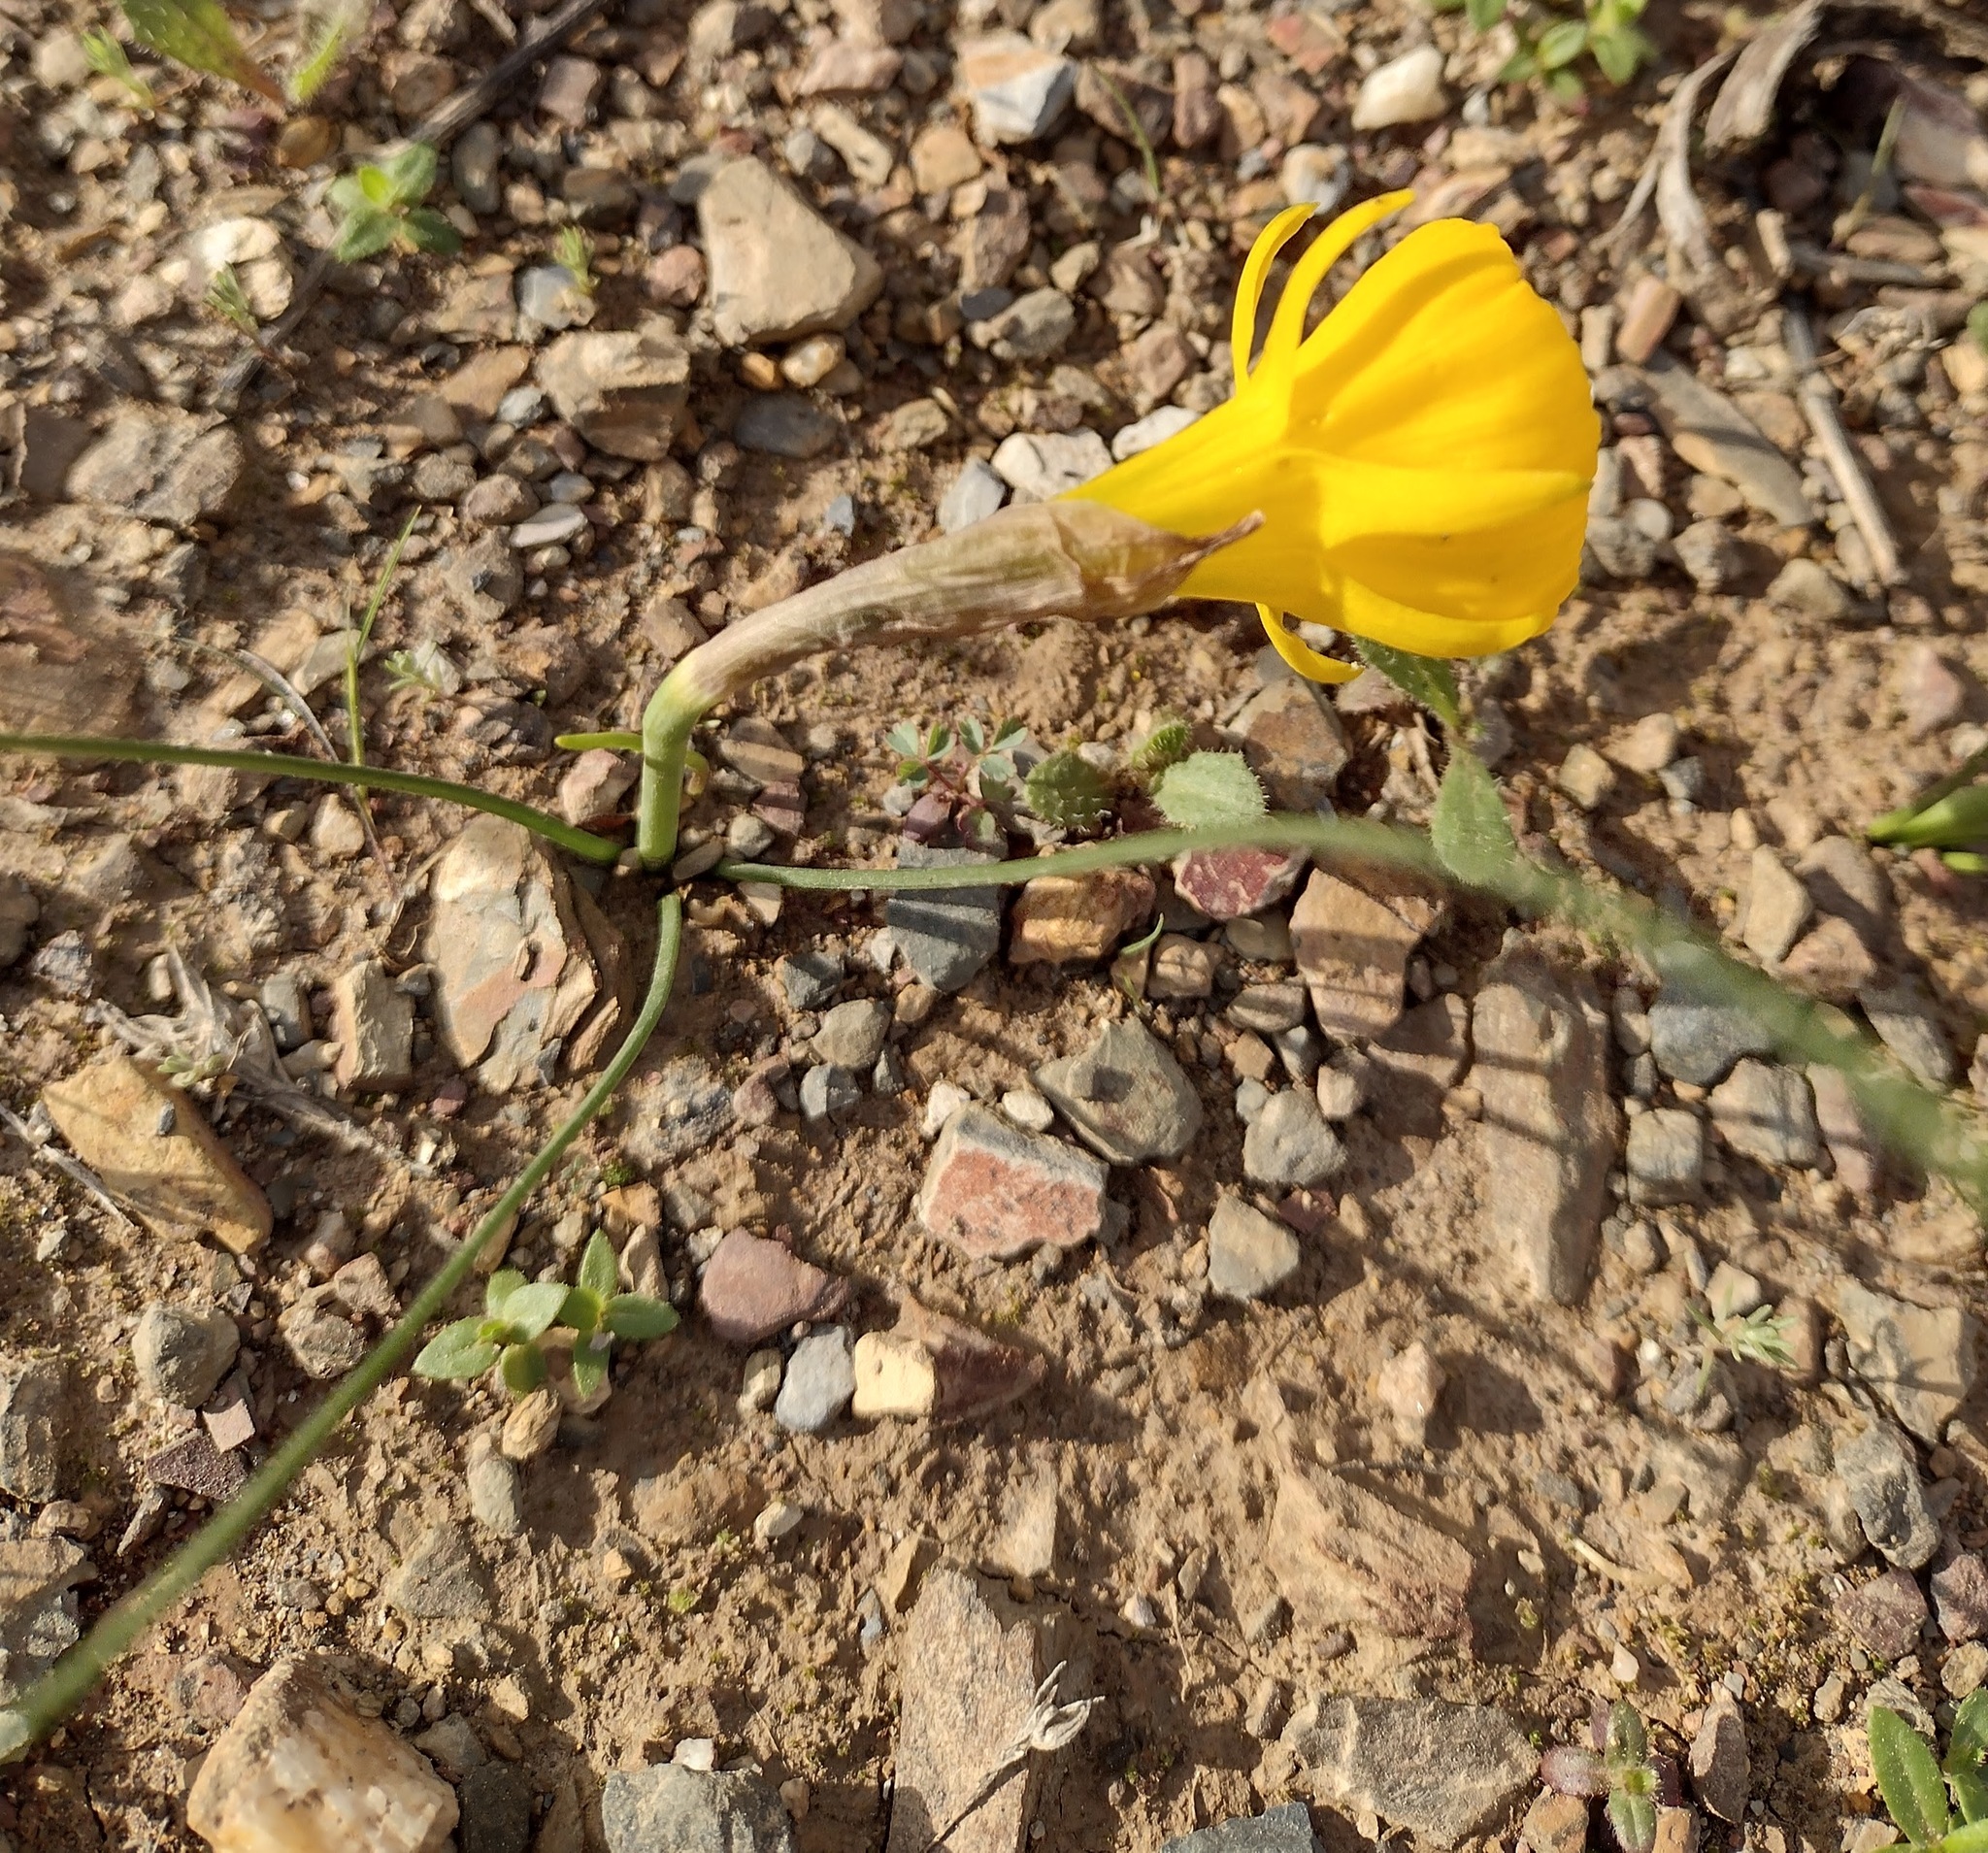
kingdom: Plantae
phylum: Tracheophyta
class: Liliopsida
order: Asparagales
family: Amaryllidaceae
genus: Narcissus
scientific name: Narcissus obesus
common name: Hoop petticoat daffodil
